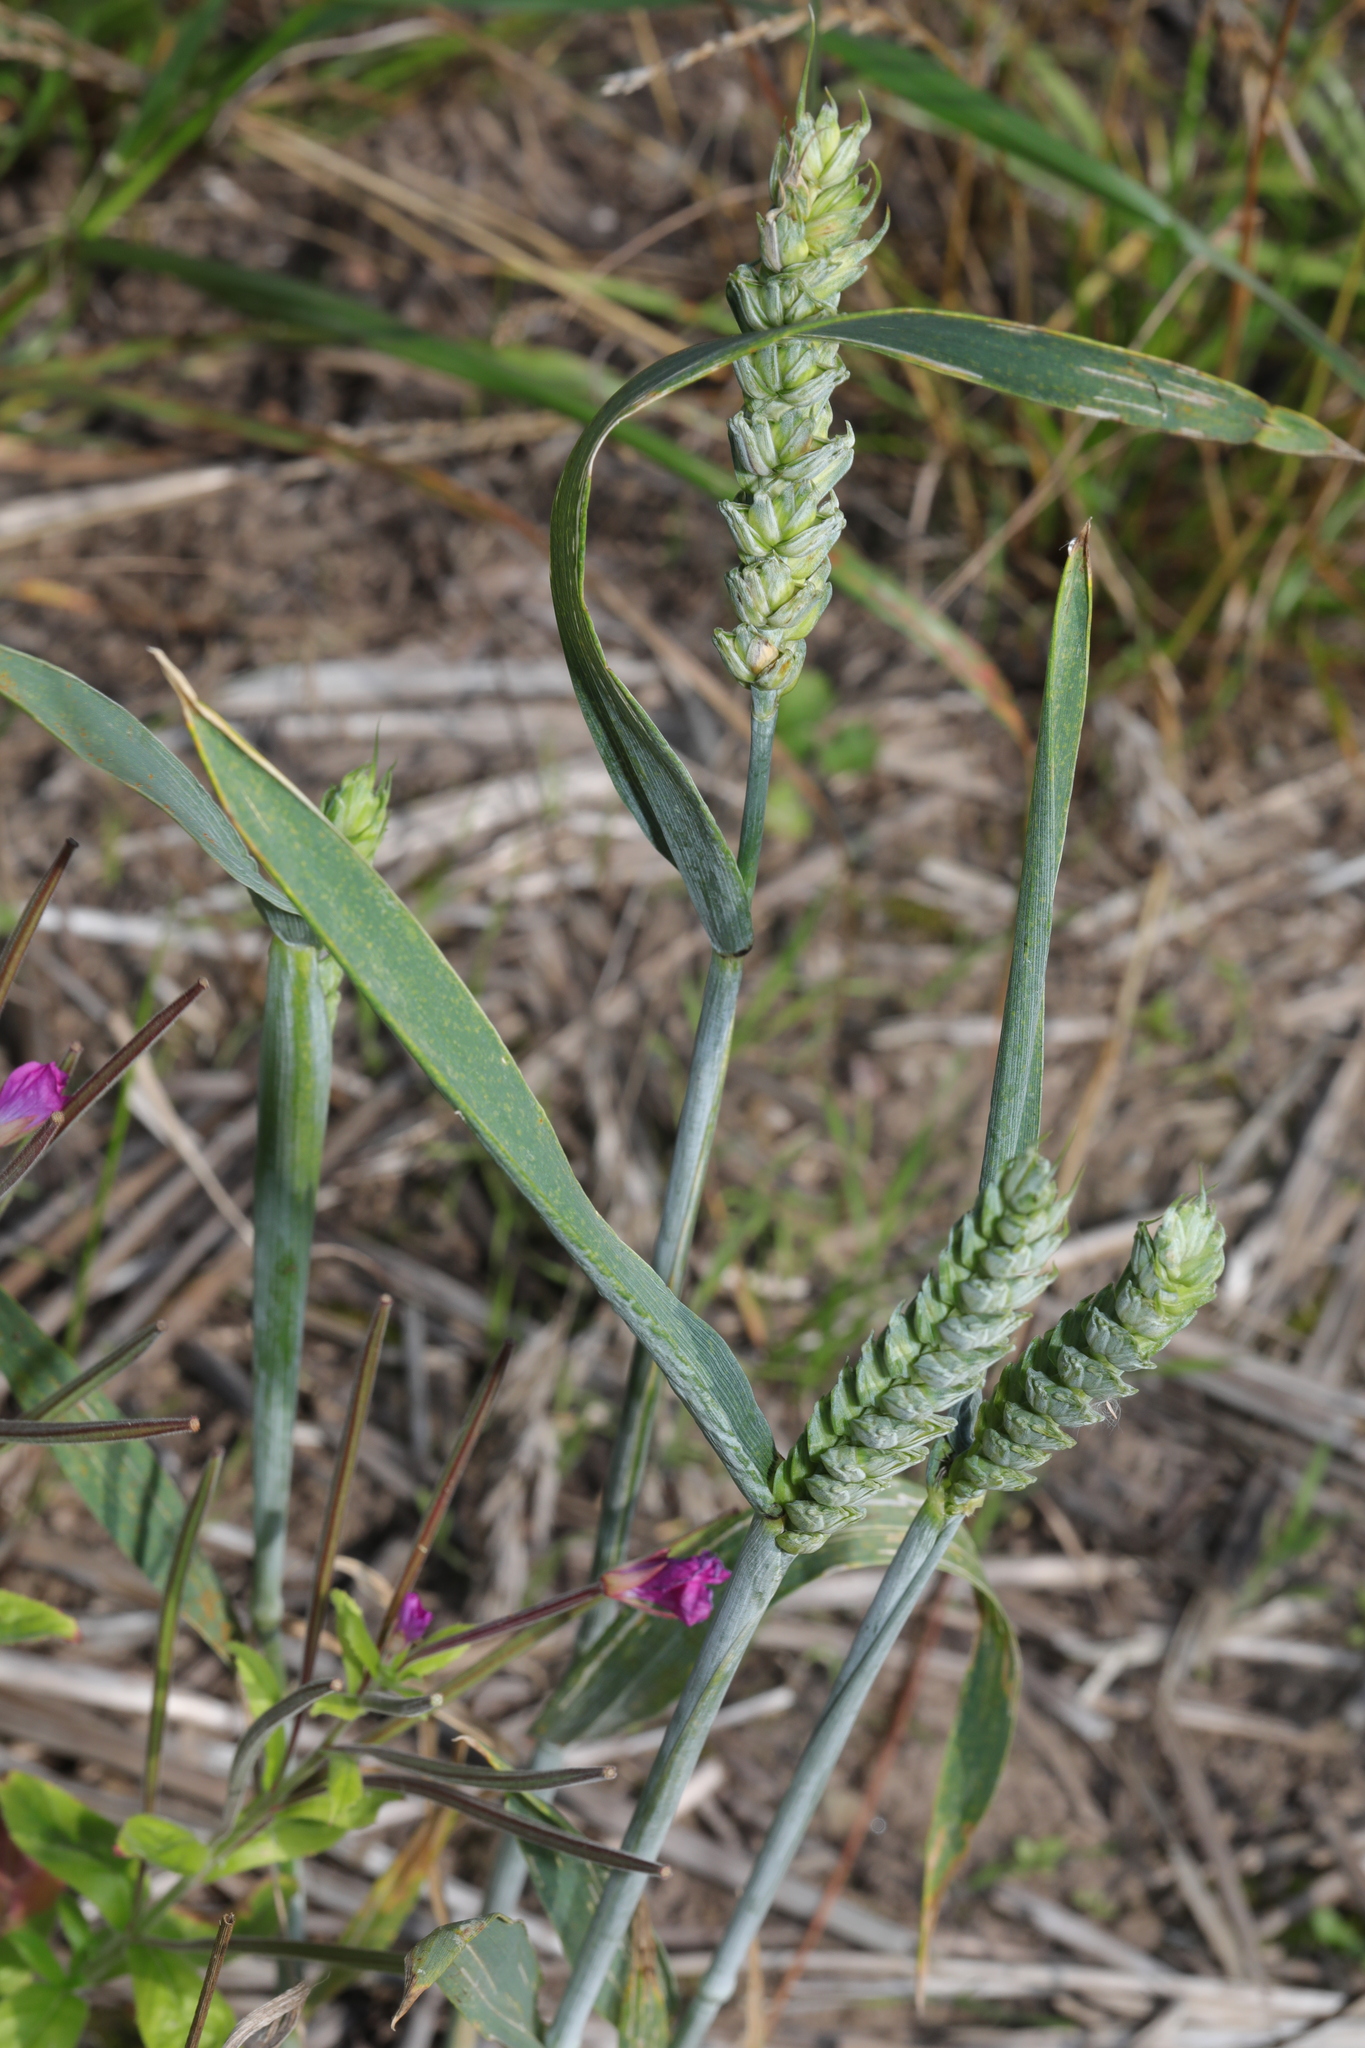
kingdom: Plantae
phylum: Tracheophyta
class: Liliopsida
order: Poales
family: Poaceae
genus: Triticum
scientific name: Triticum aestivum
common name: Common wheat
